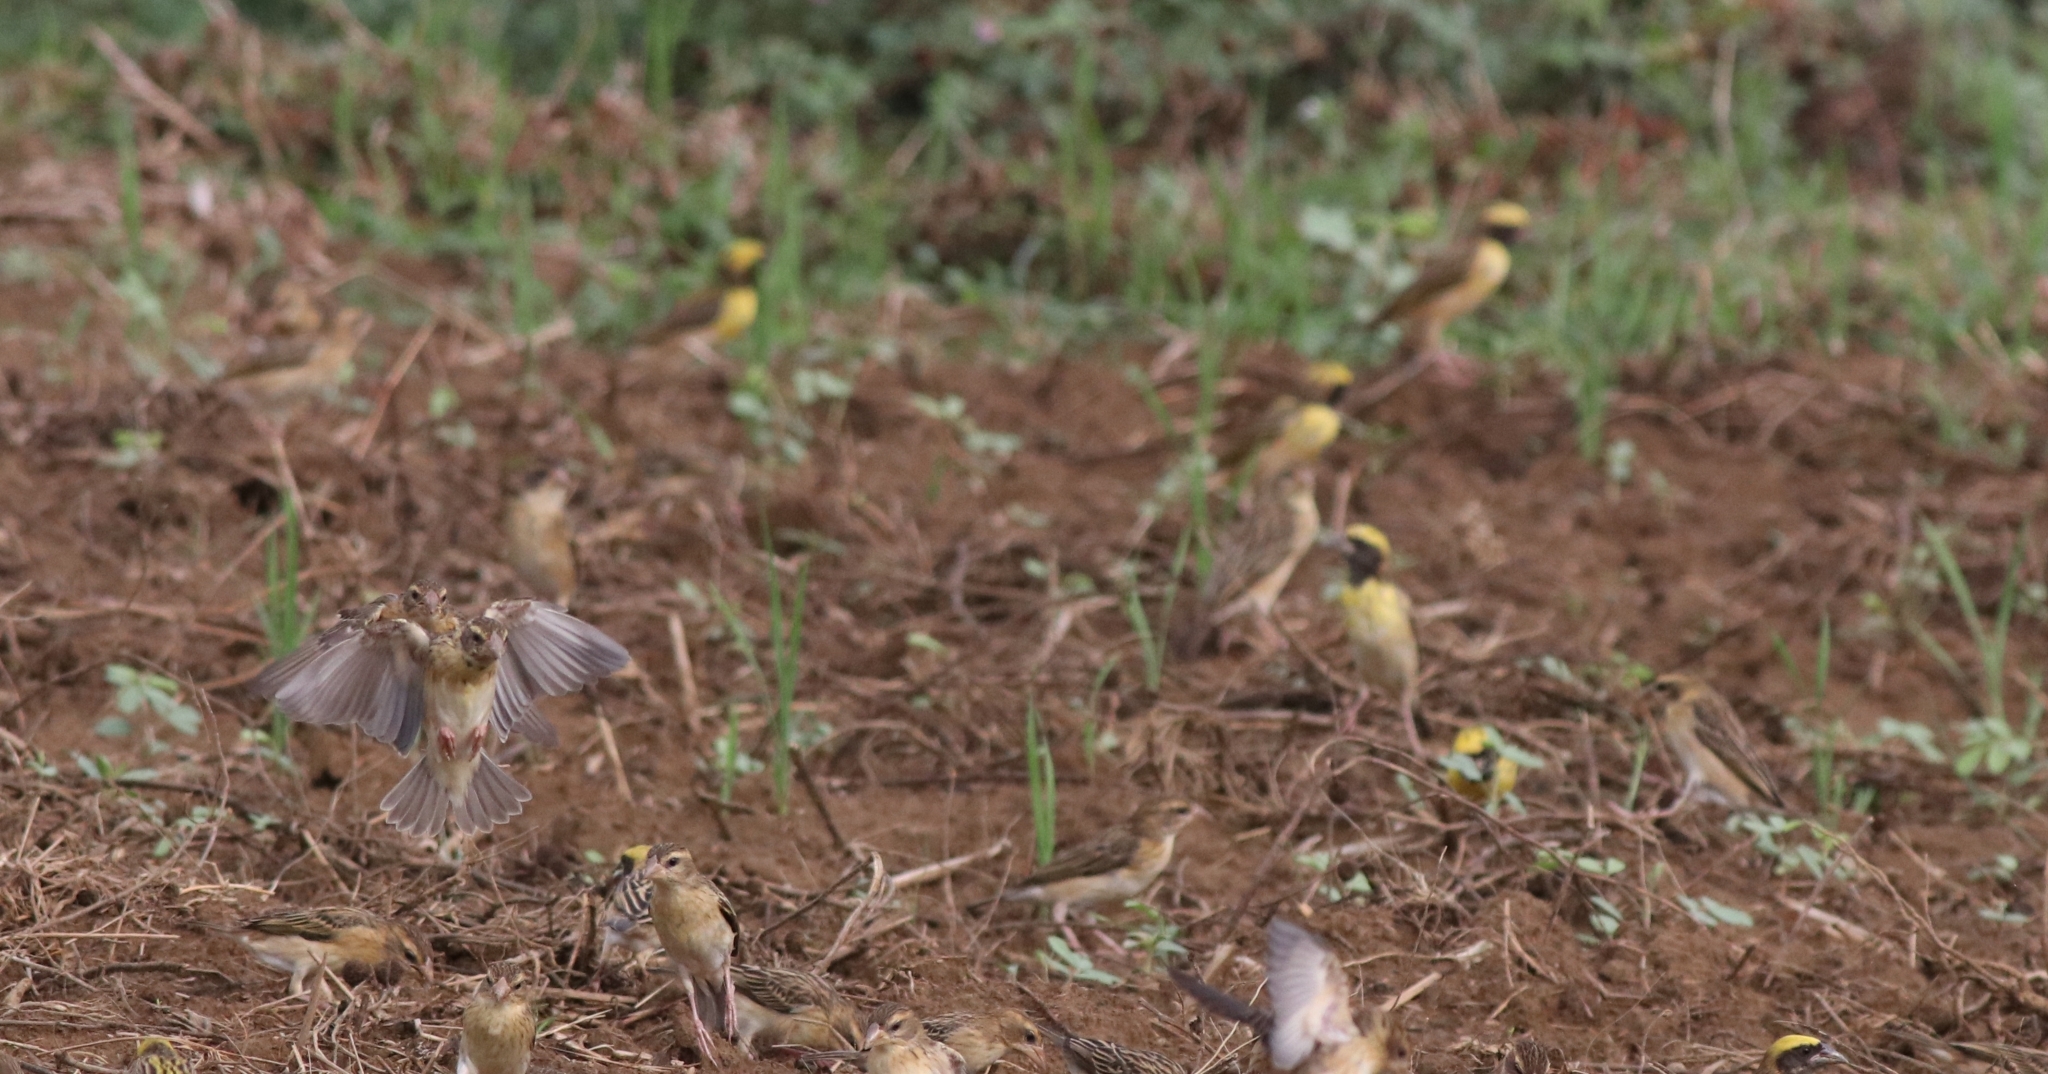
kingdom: Animalia
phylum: Chordata
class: Aves
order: Passeriformes
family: Ploceidae
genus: Ploceus
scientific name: Ploceus philippinus
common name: Baya weaver
